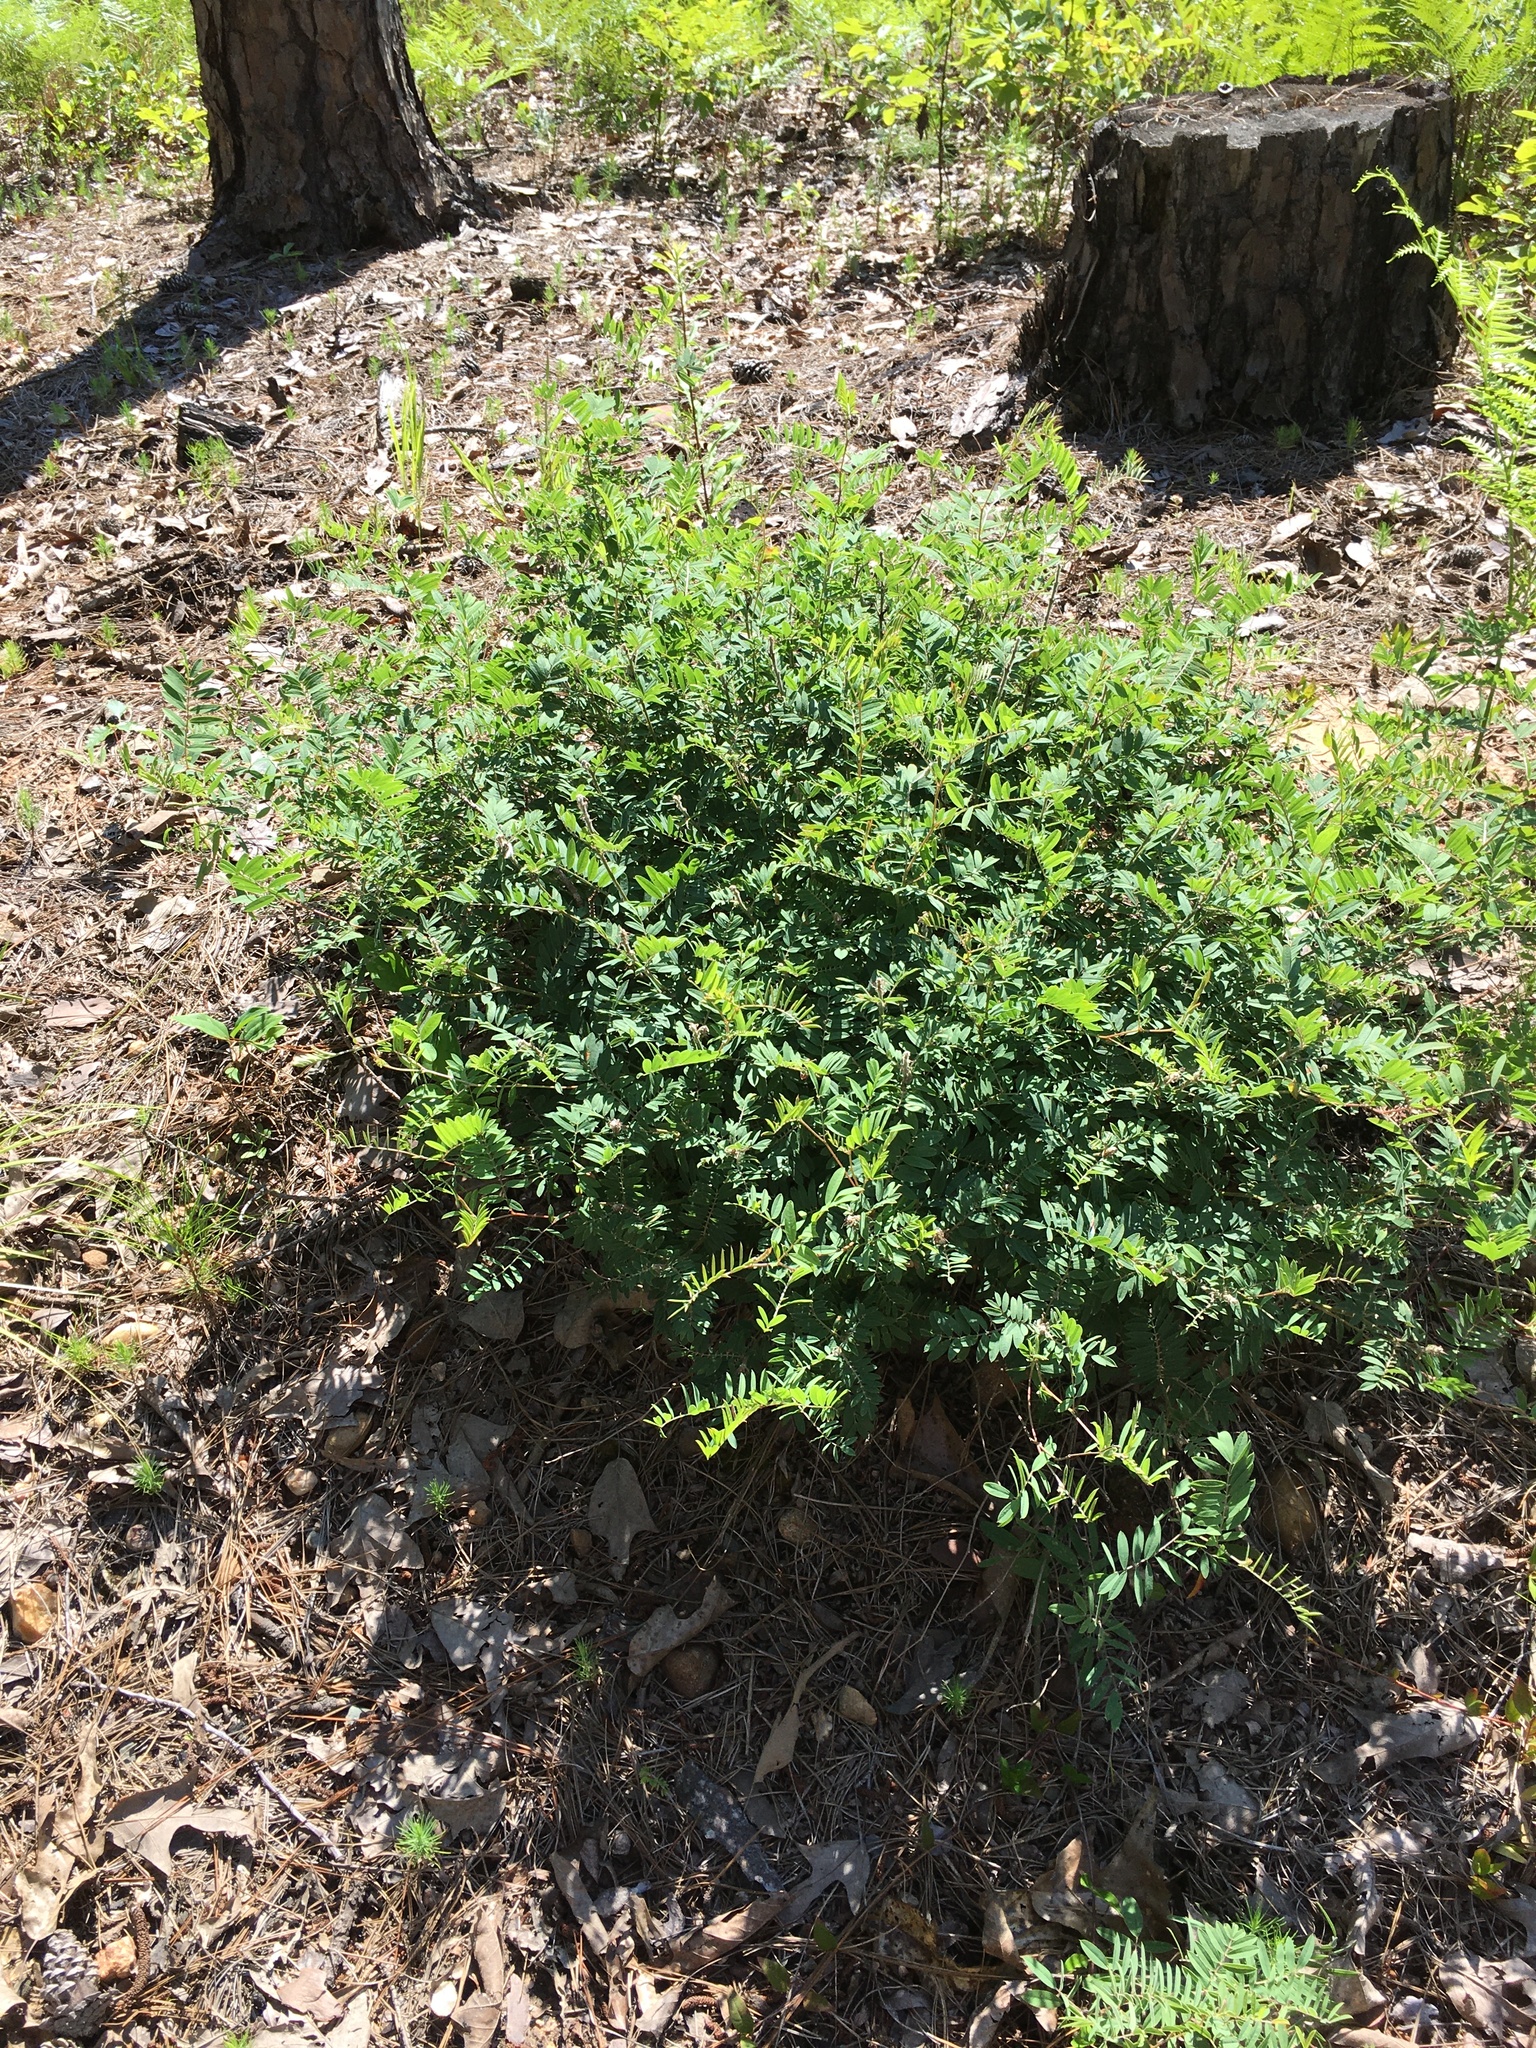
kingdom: Plantae
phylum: Tracheophyta
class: Magnoliopsida
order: Fabales
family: Fabaceae
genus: Tephrosia
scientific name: Tephrosia virginiana
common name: Rabbit-pea
